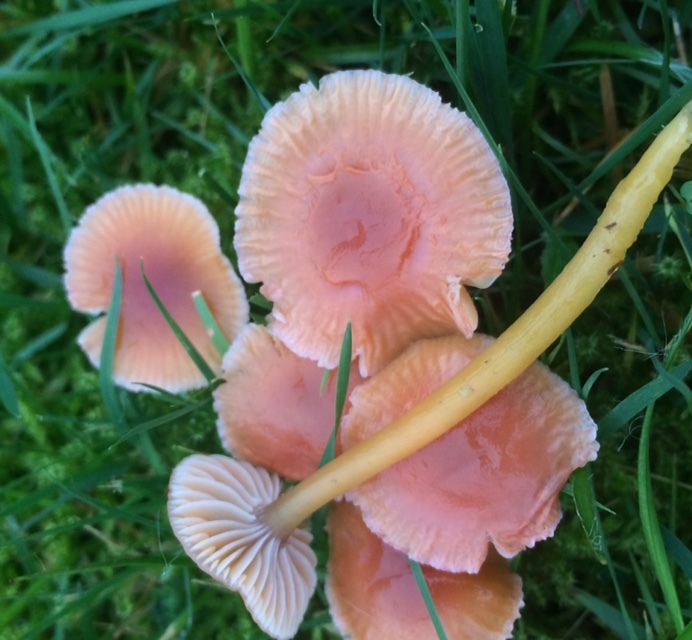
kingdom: Fungi
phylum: Basidiomycota
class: Agaricomycetes
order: Agaricales
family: Hygrophoraceae
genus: Gliophorus
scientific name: Gliophorus laetus
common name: Heath waxcap
